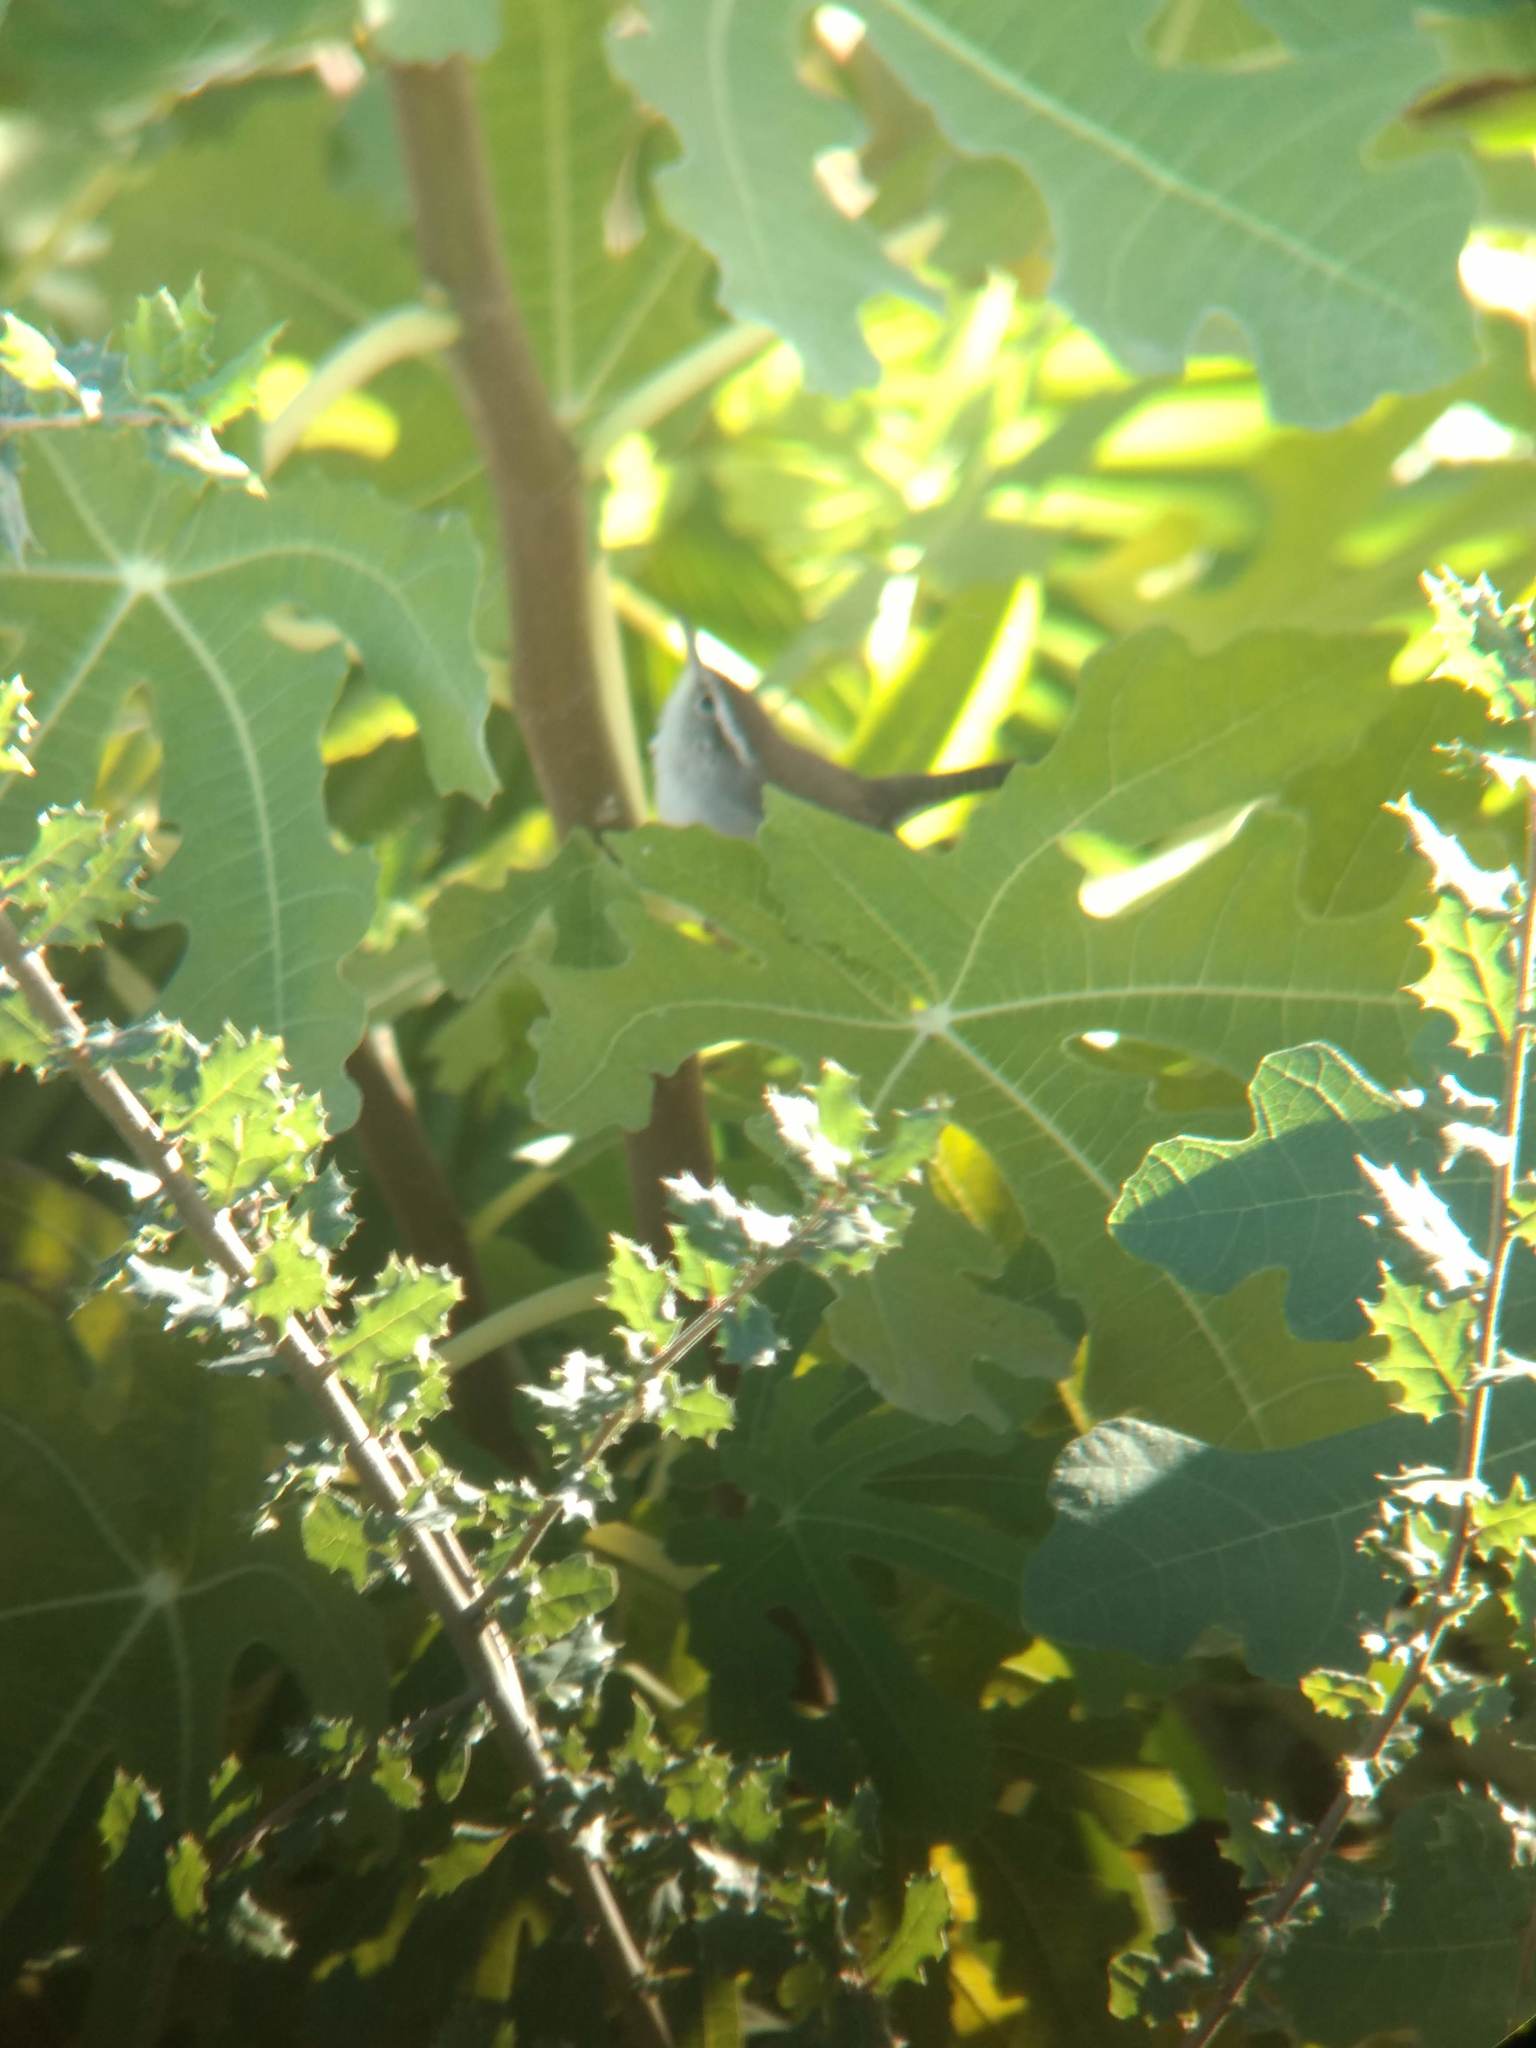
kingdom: Animalia
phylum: Chordata
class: Aves
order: Passeriformes
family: Troglodytidae
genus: Thryomanes
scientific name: Thryomanes bewickii
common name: Bewick's wren
